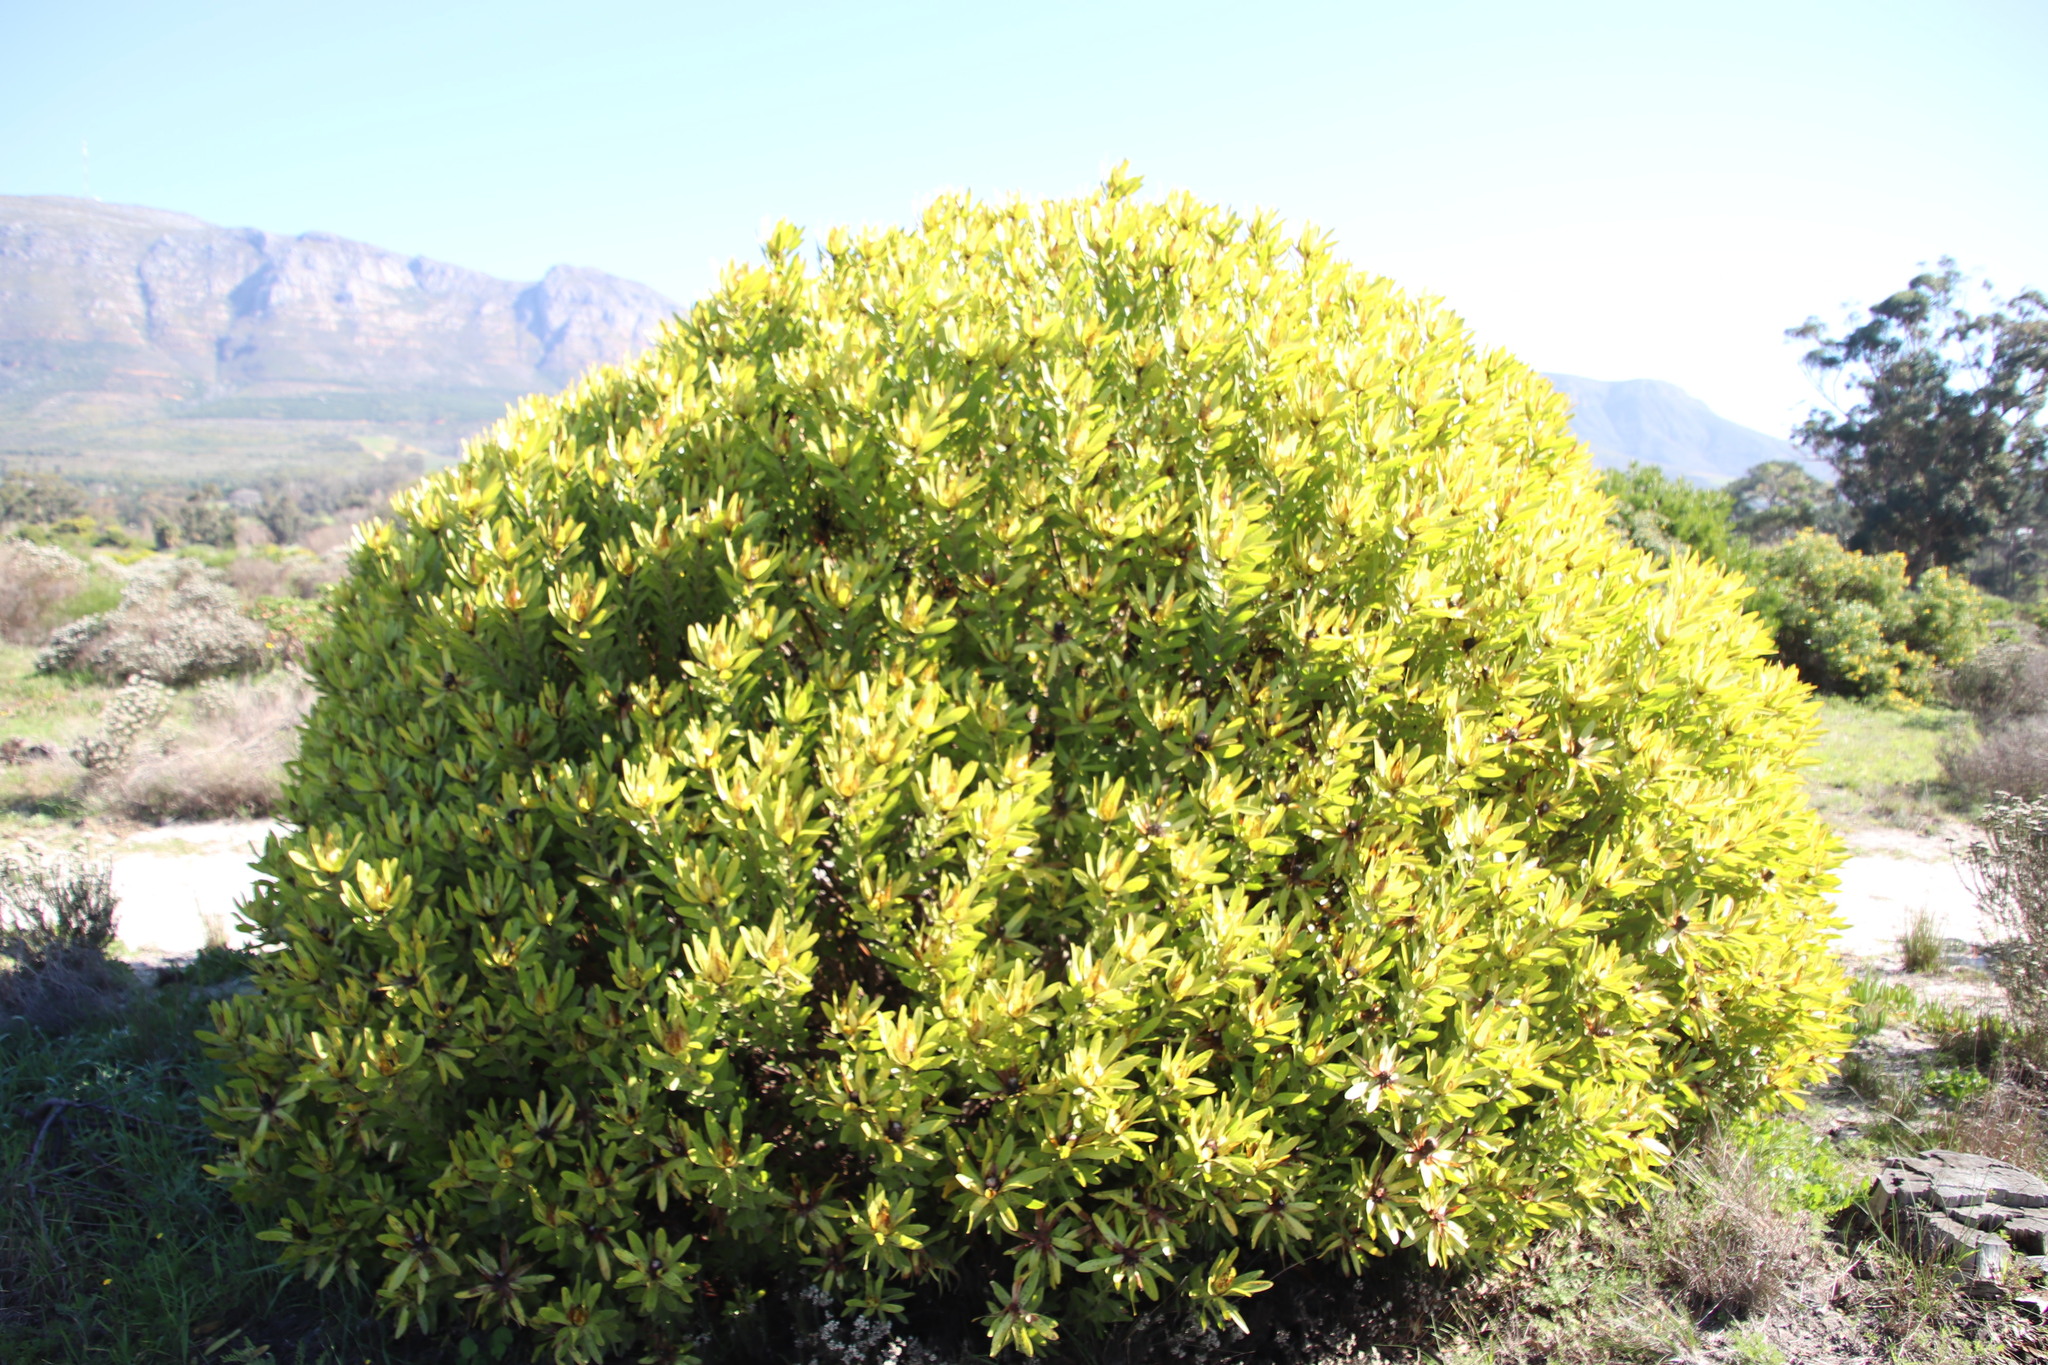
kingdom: Plantae
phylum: Tracheophyta
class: Magnoliopsida
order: Proteales
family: Proteaceae
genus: Leucadendron
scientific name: Leucadendron laureolum
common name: Golden sunshinebush
